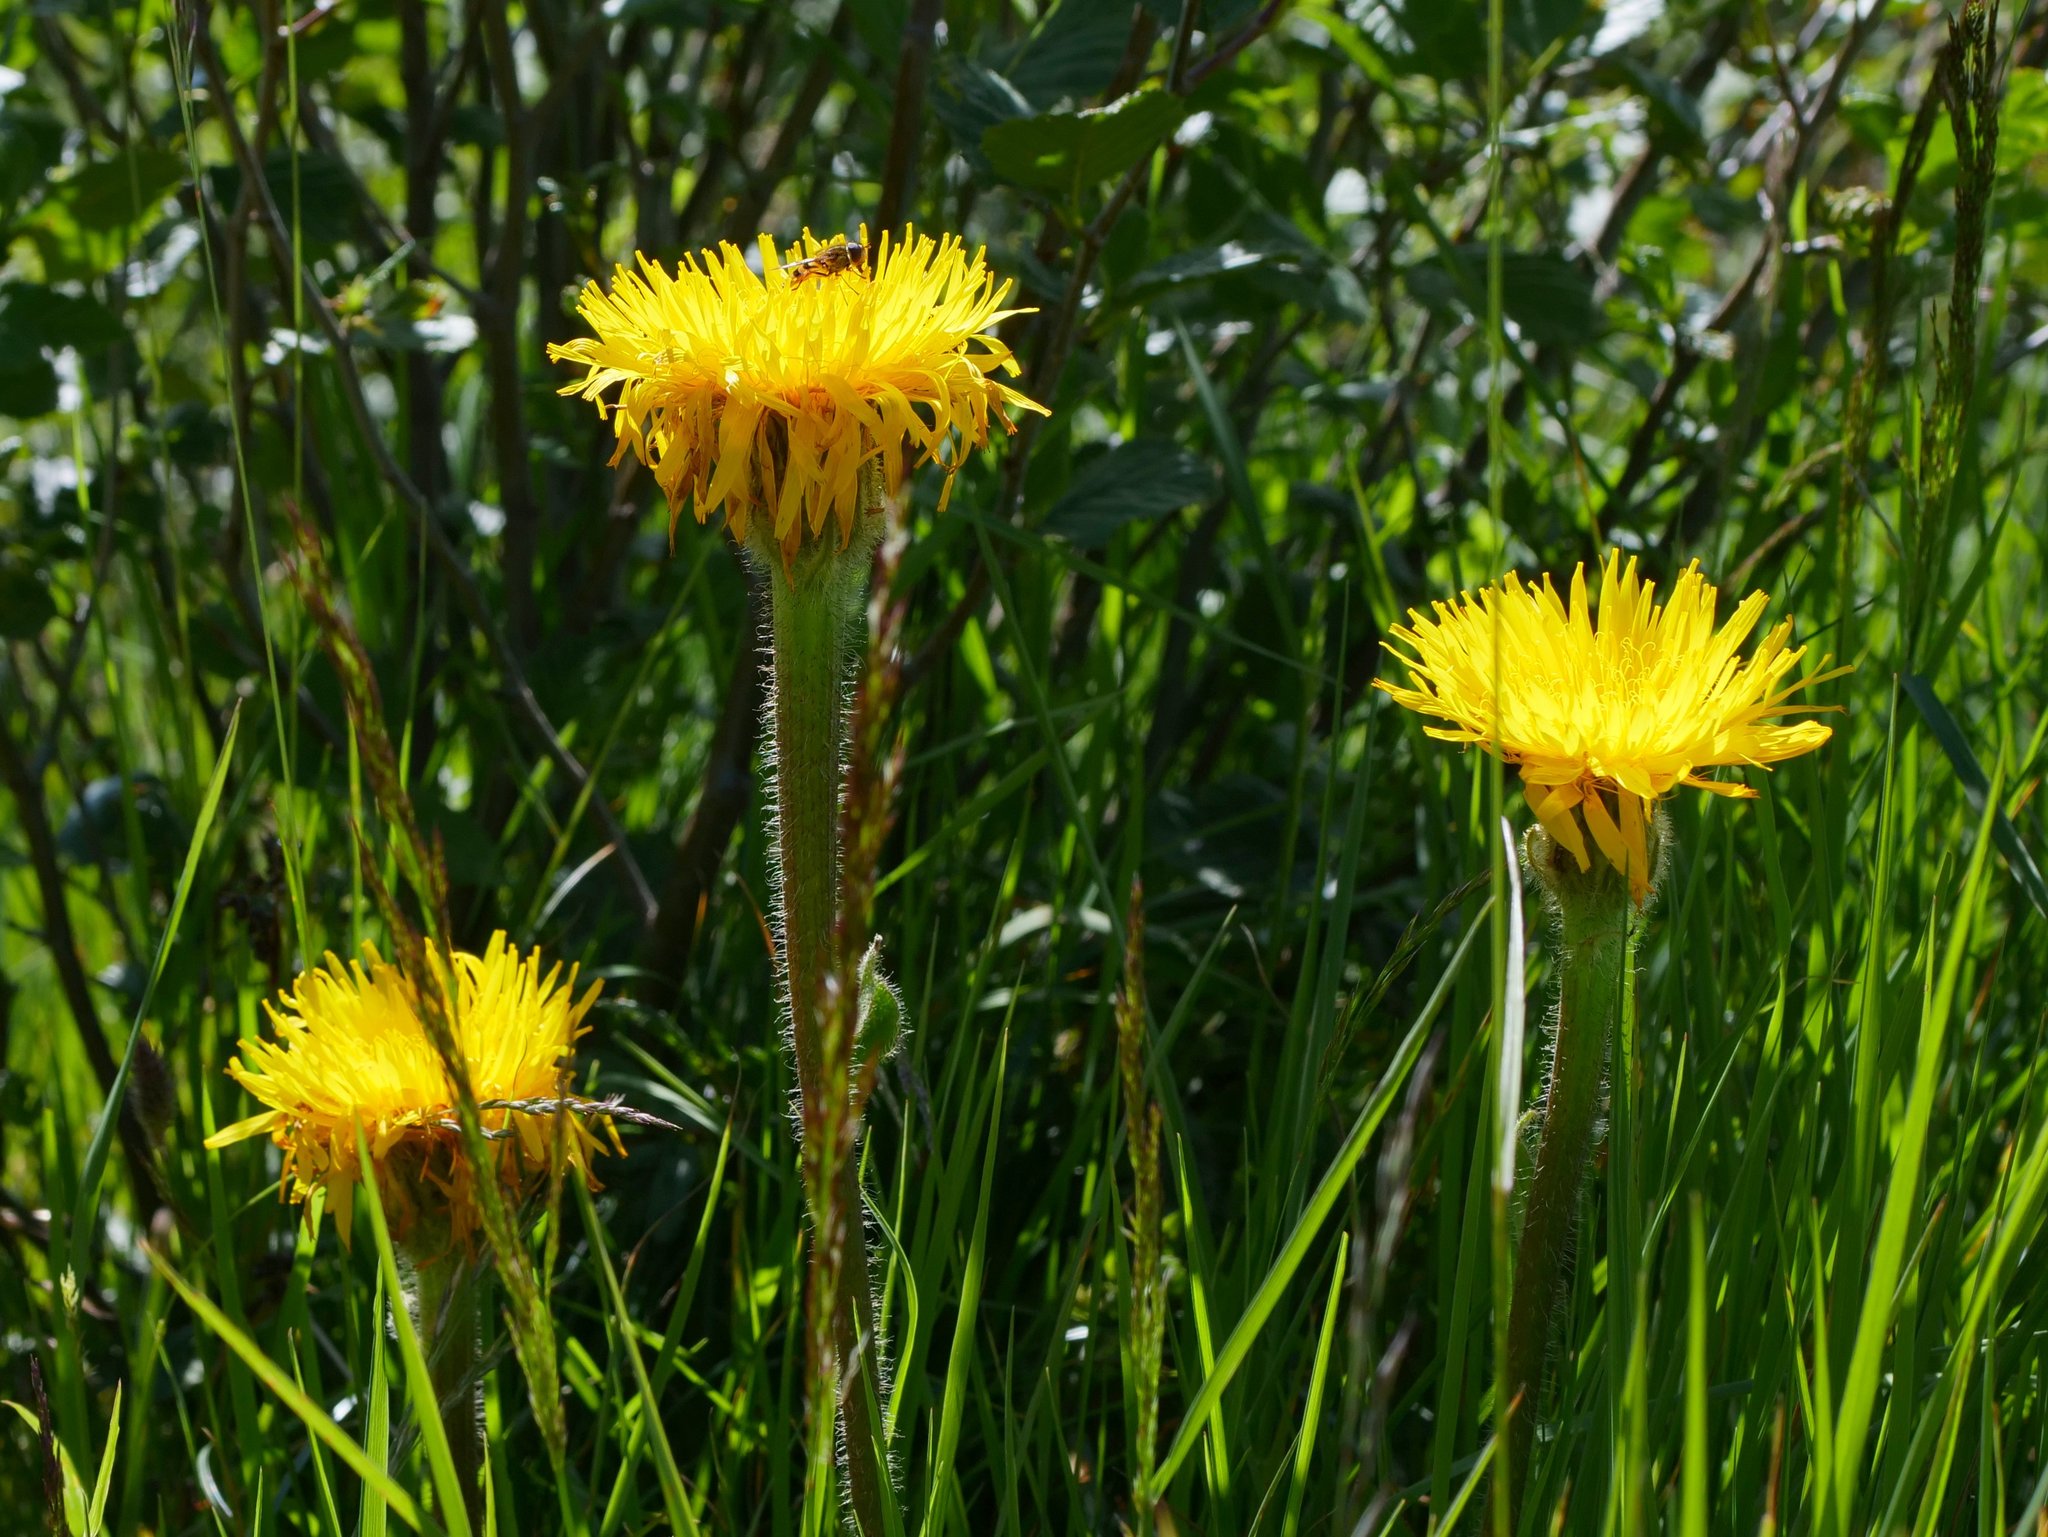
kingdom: Plantae
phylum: Tracheophyta
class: Magnoliopsida
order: Asterales
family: Asteraceae
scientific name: Asteraceae
